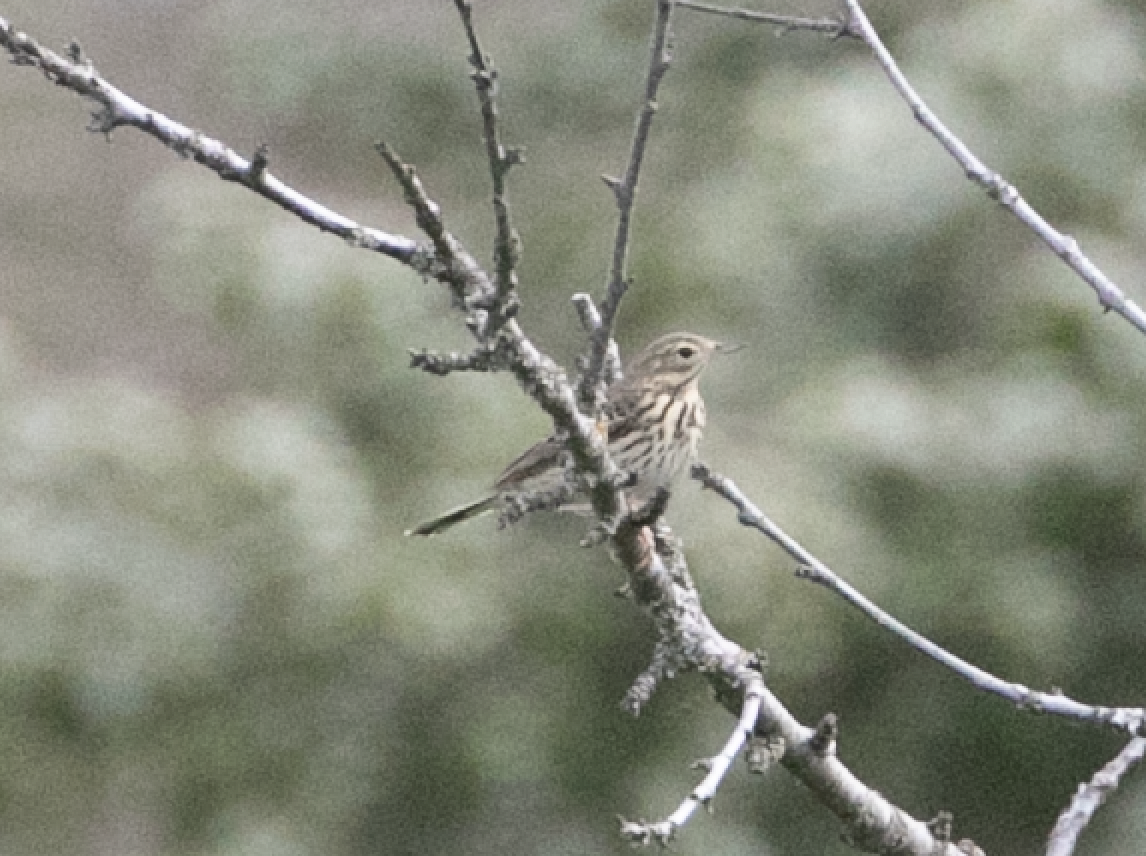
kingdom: Animalia
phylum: Chordata
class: Aves
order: Passeriformes
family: Motacillidae
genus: Anthus
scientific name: Anthus trivialis
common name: Tree pipit
